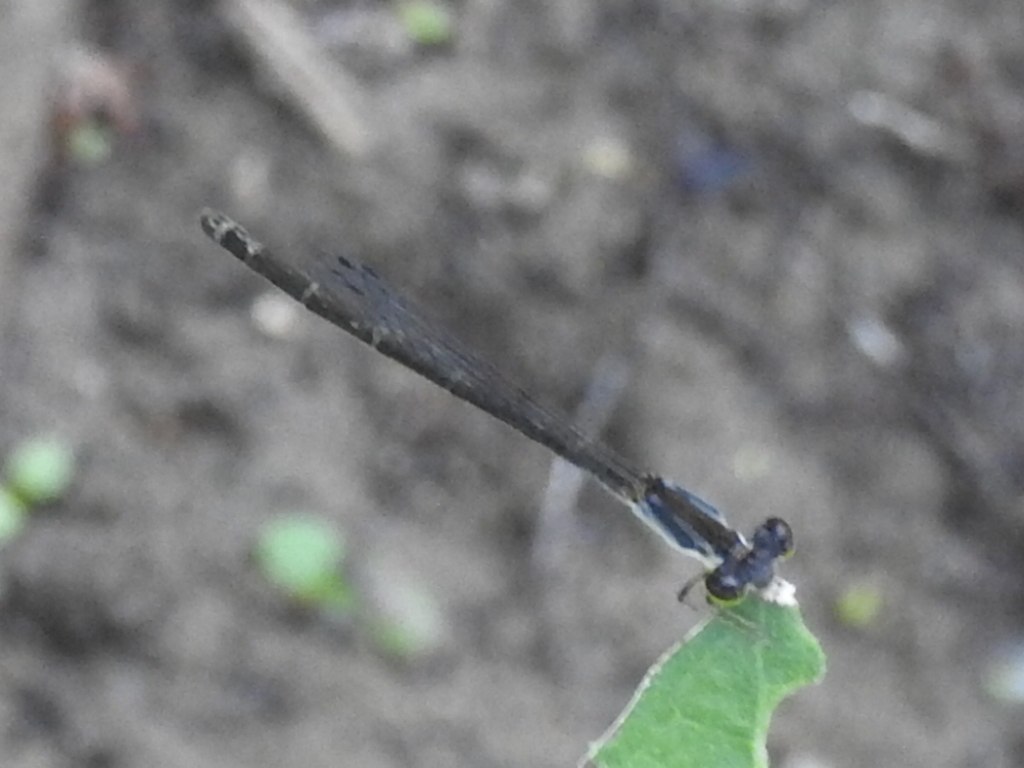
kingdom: Animalia
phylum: Arthropoda
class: Insecta
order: Odonata
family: Coenagrionidae
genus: Ischnura
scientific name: Ischnura posita
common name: Fragile forktail
